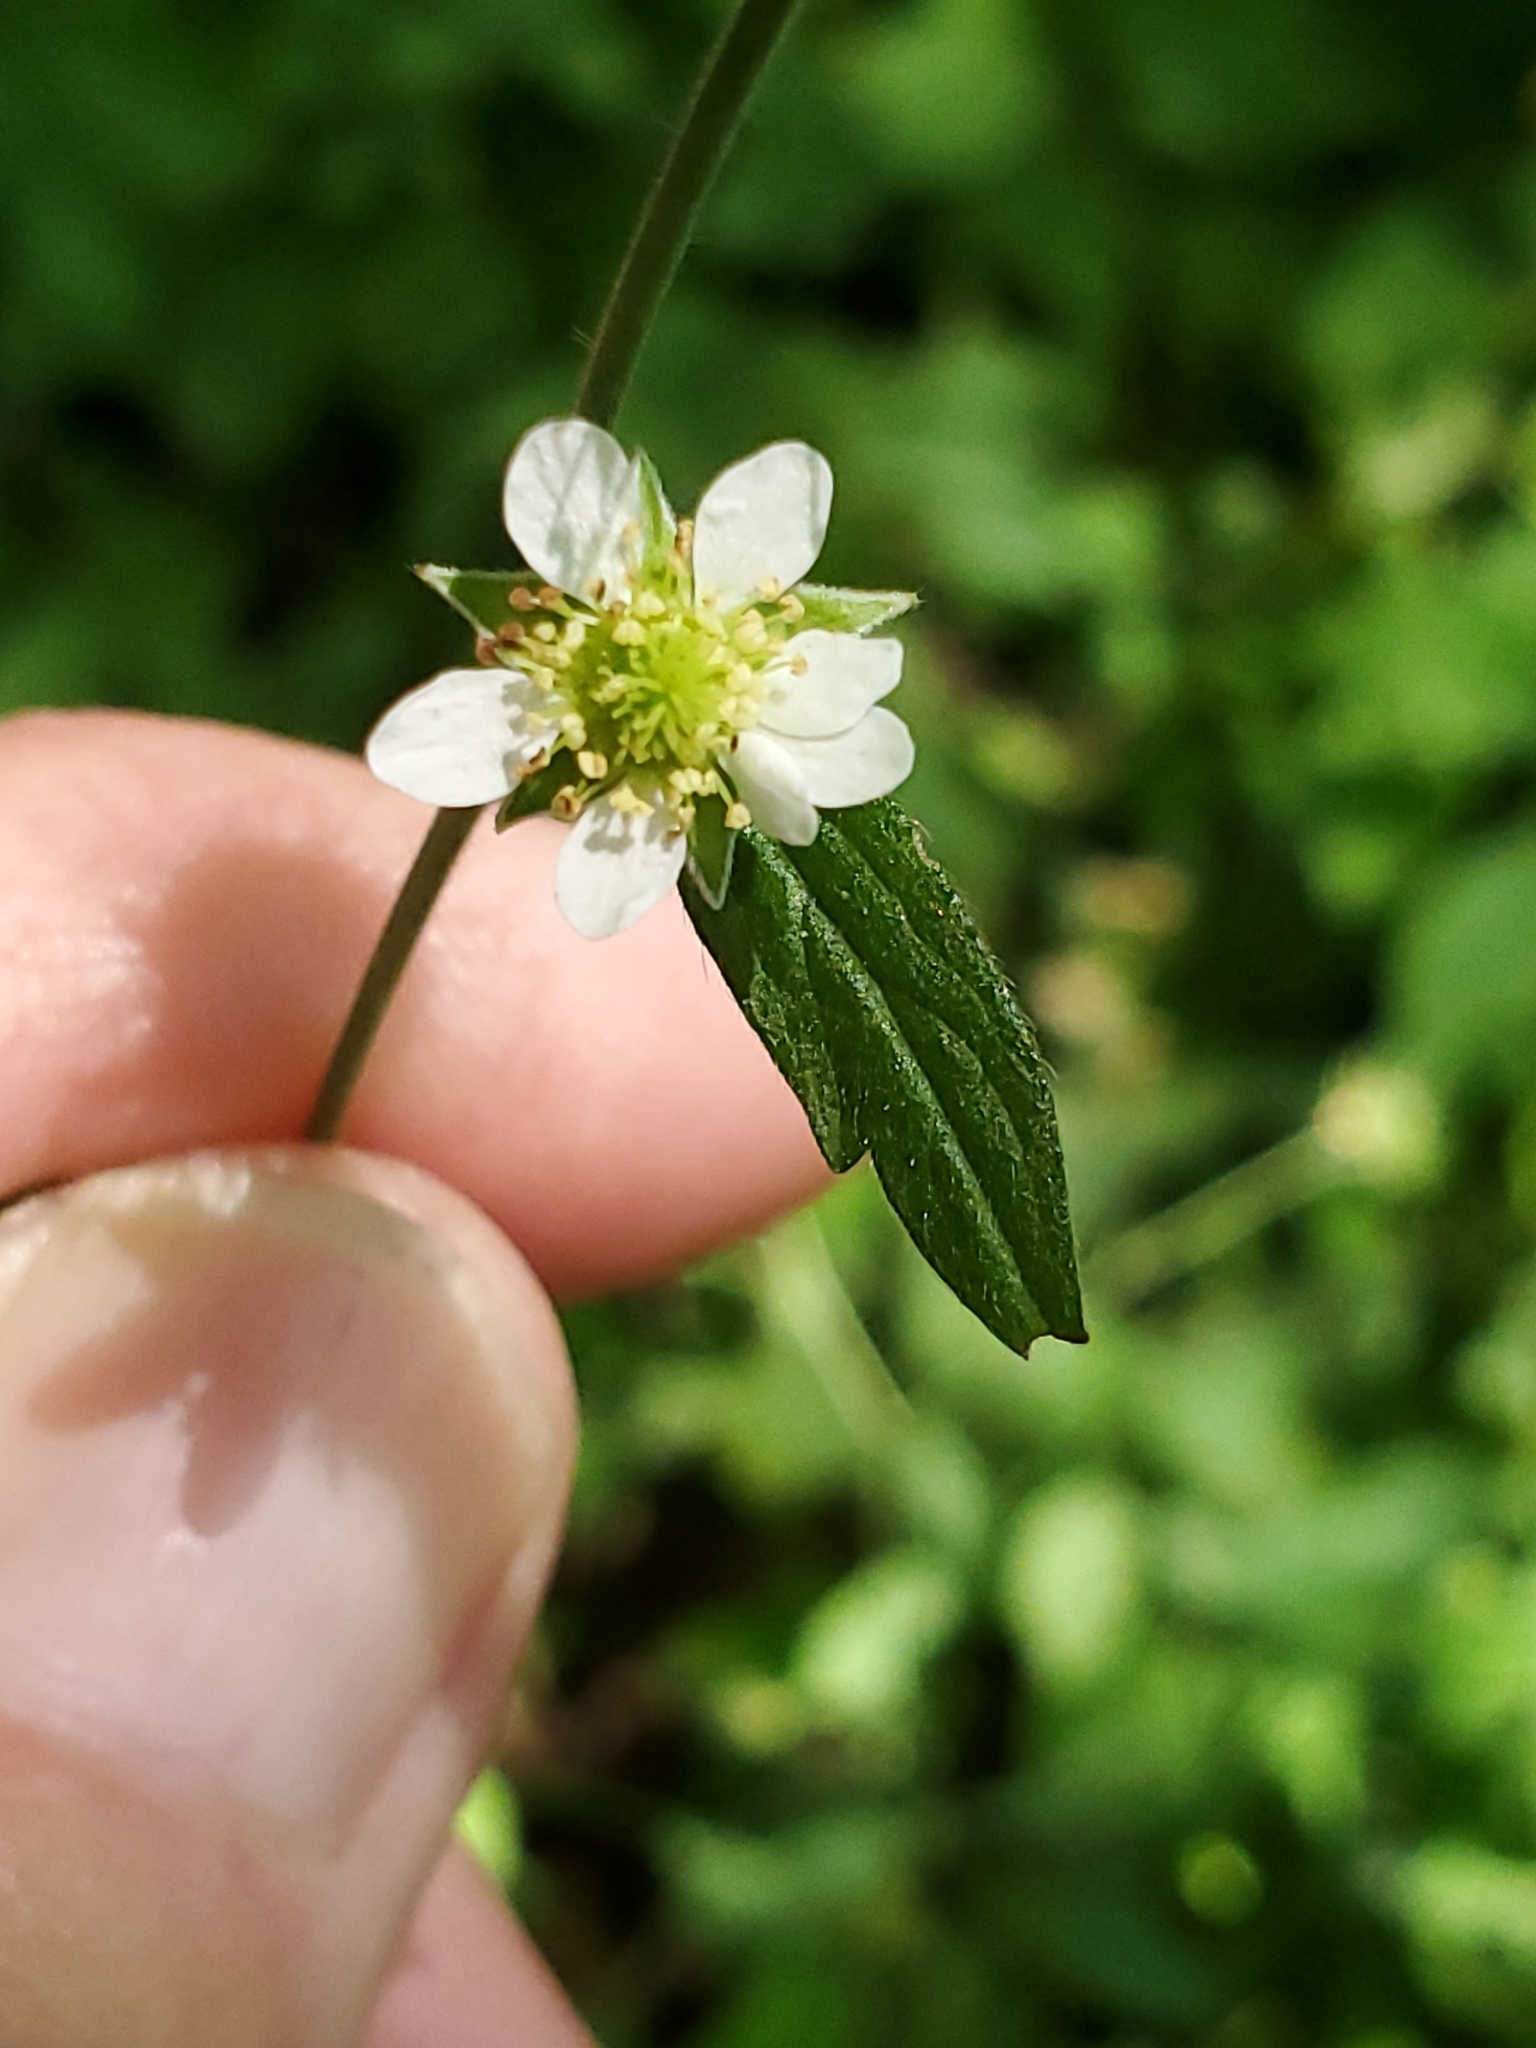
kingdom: Plantae
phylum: Tracheophyta
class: Magnoliopsida
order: Rosales
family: Rosaceae
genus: Geum
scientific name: Geum canadense
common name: White avens
